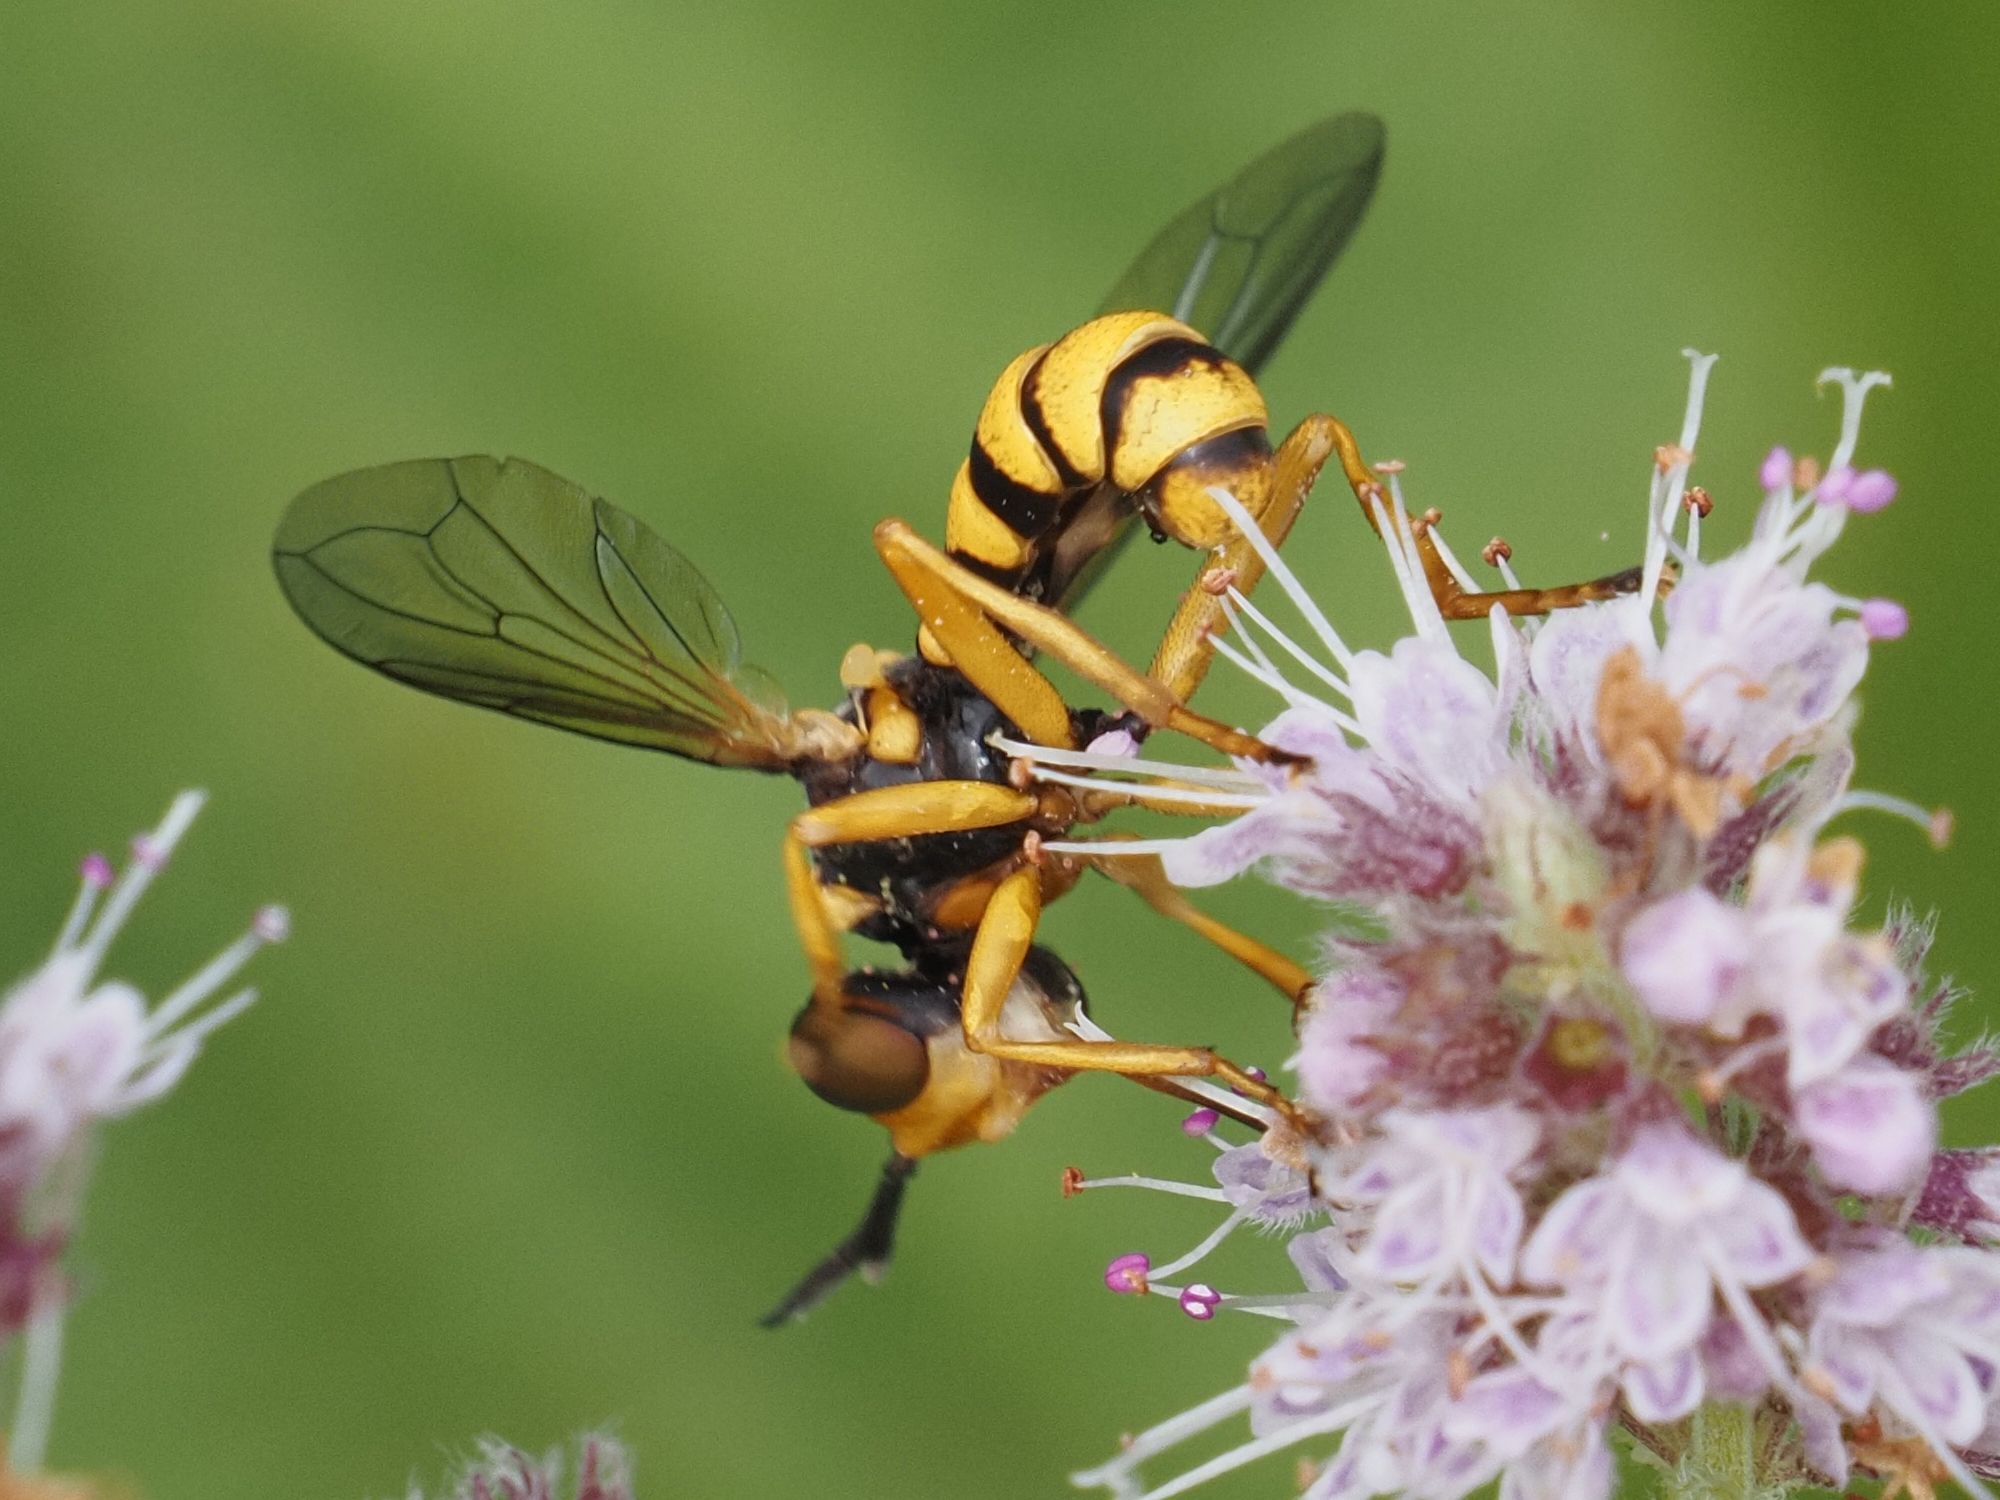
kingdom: Animalia
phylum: Arthropoda
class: Insecta
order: Diptera
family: Conopidae
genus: Conops
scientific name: Conops scutellatus
